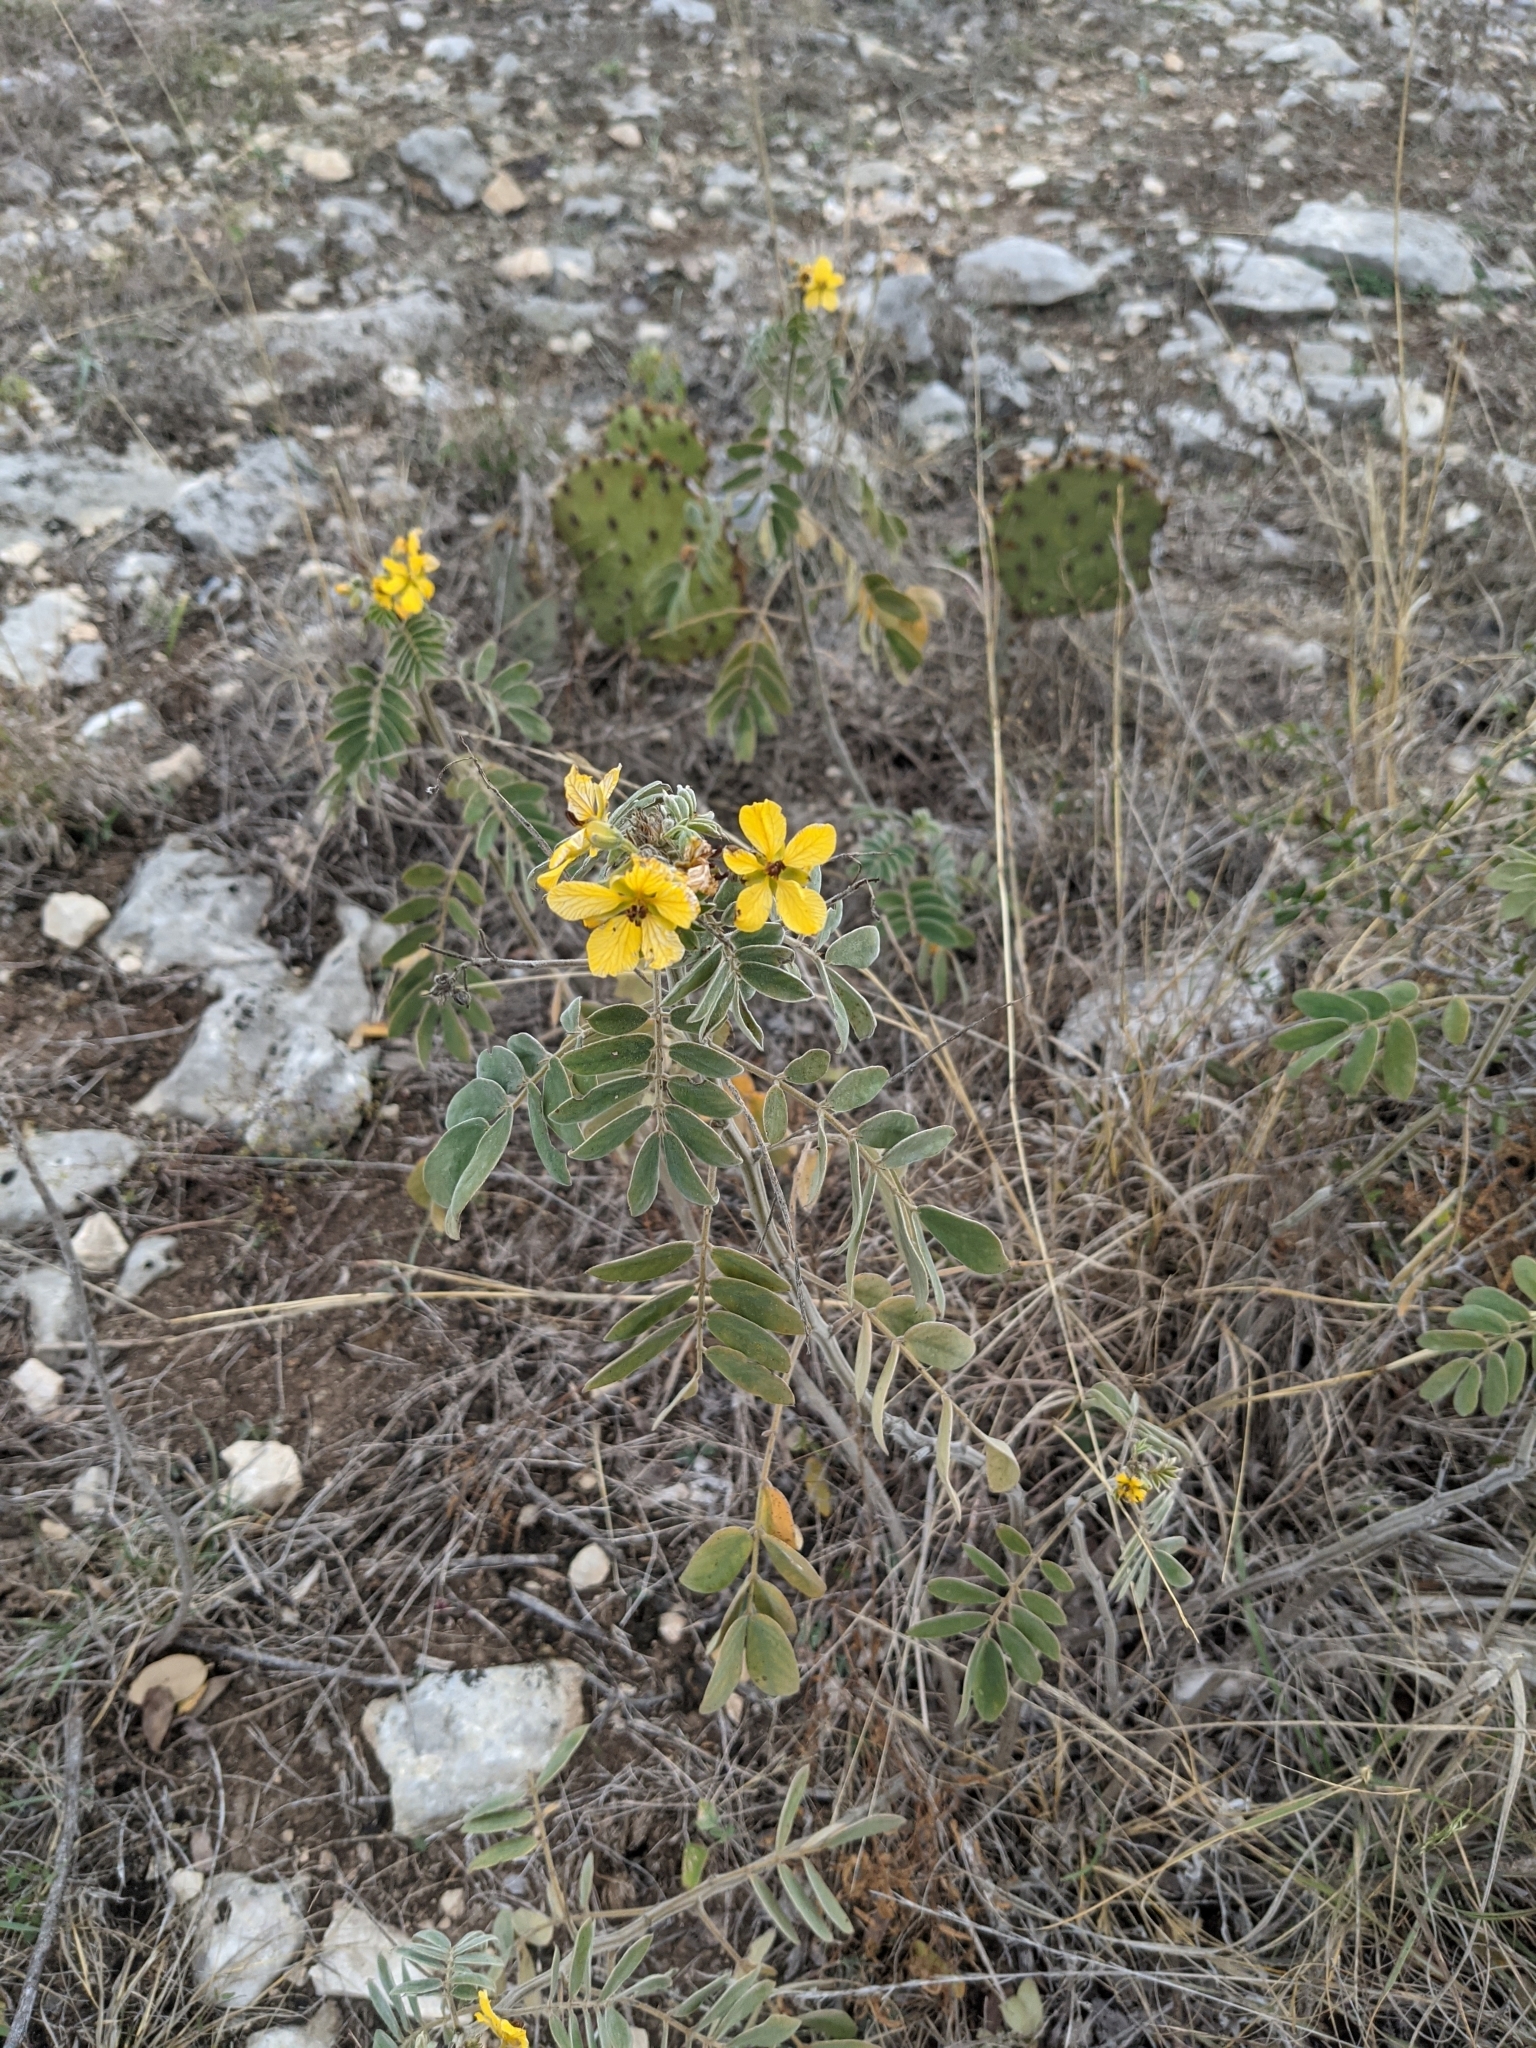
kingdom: Plantae
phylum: Tracheophyta
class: Magnoliopsida
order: Fabales
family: Fabaceae
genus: Senna
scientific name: Senna lindheimeriana
